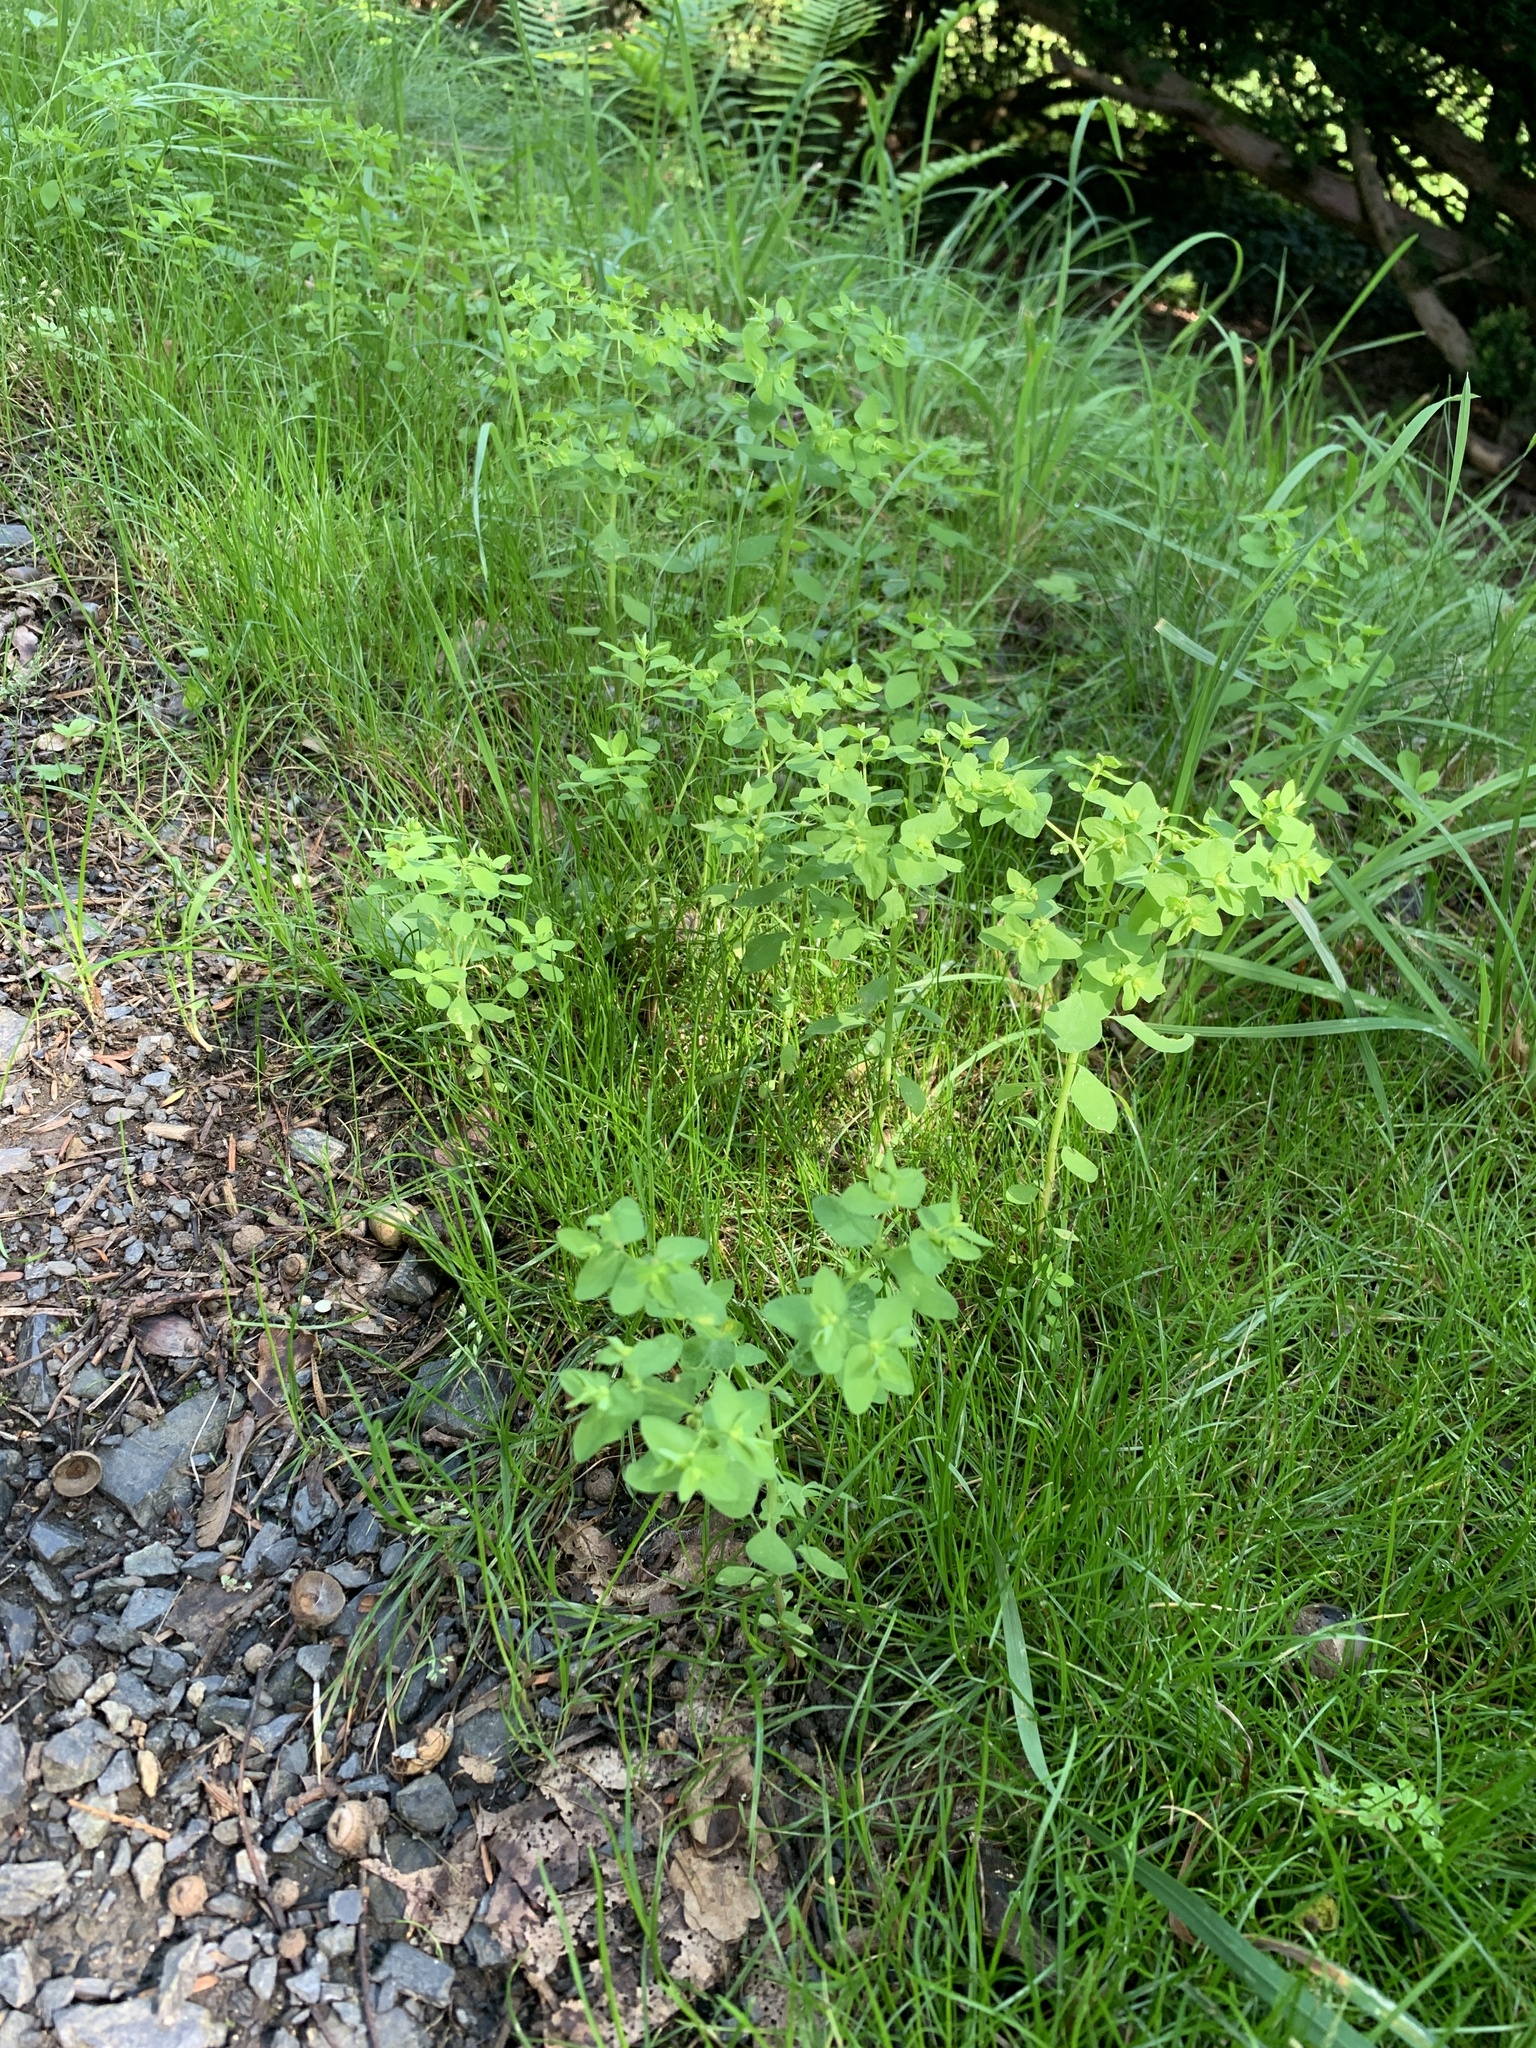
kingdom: Plantae
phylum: Tracheophyta
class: Magnoliopsida
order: Malpighiales
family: Euphorbiaceae
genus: Euphorbia
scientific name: Euphorbia peplus
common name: Petty spurge
